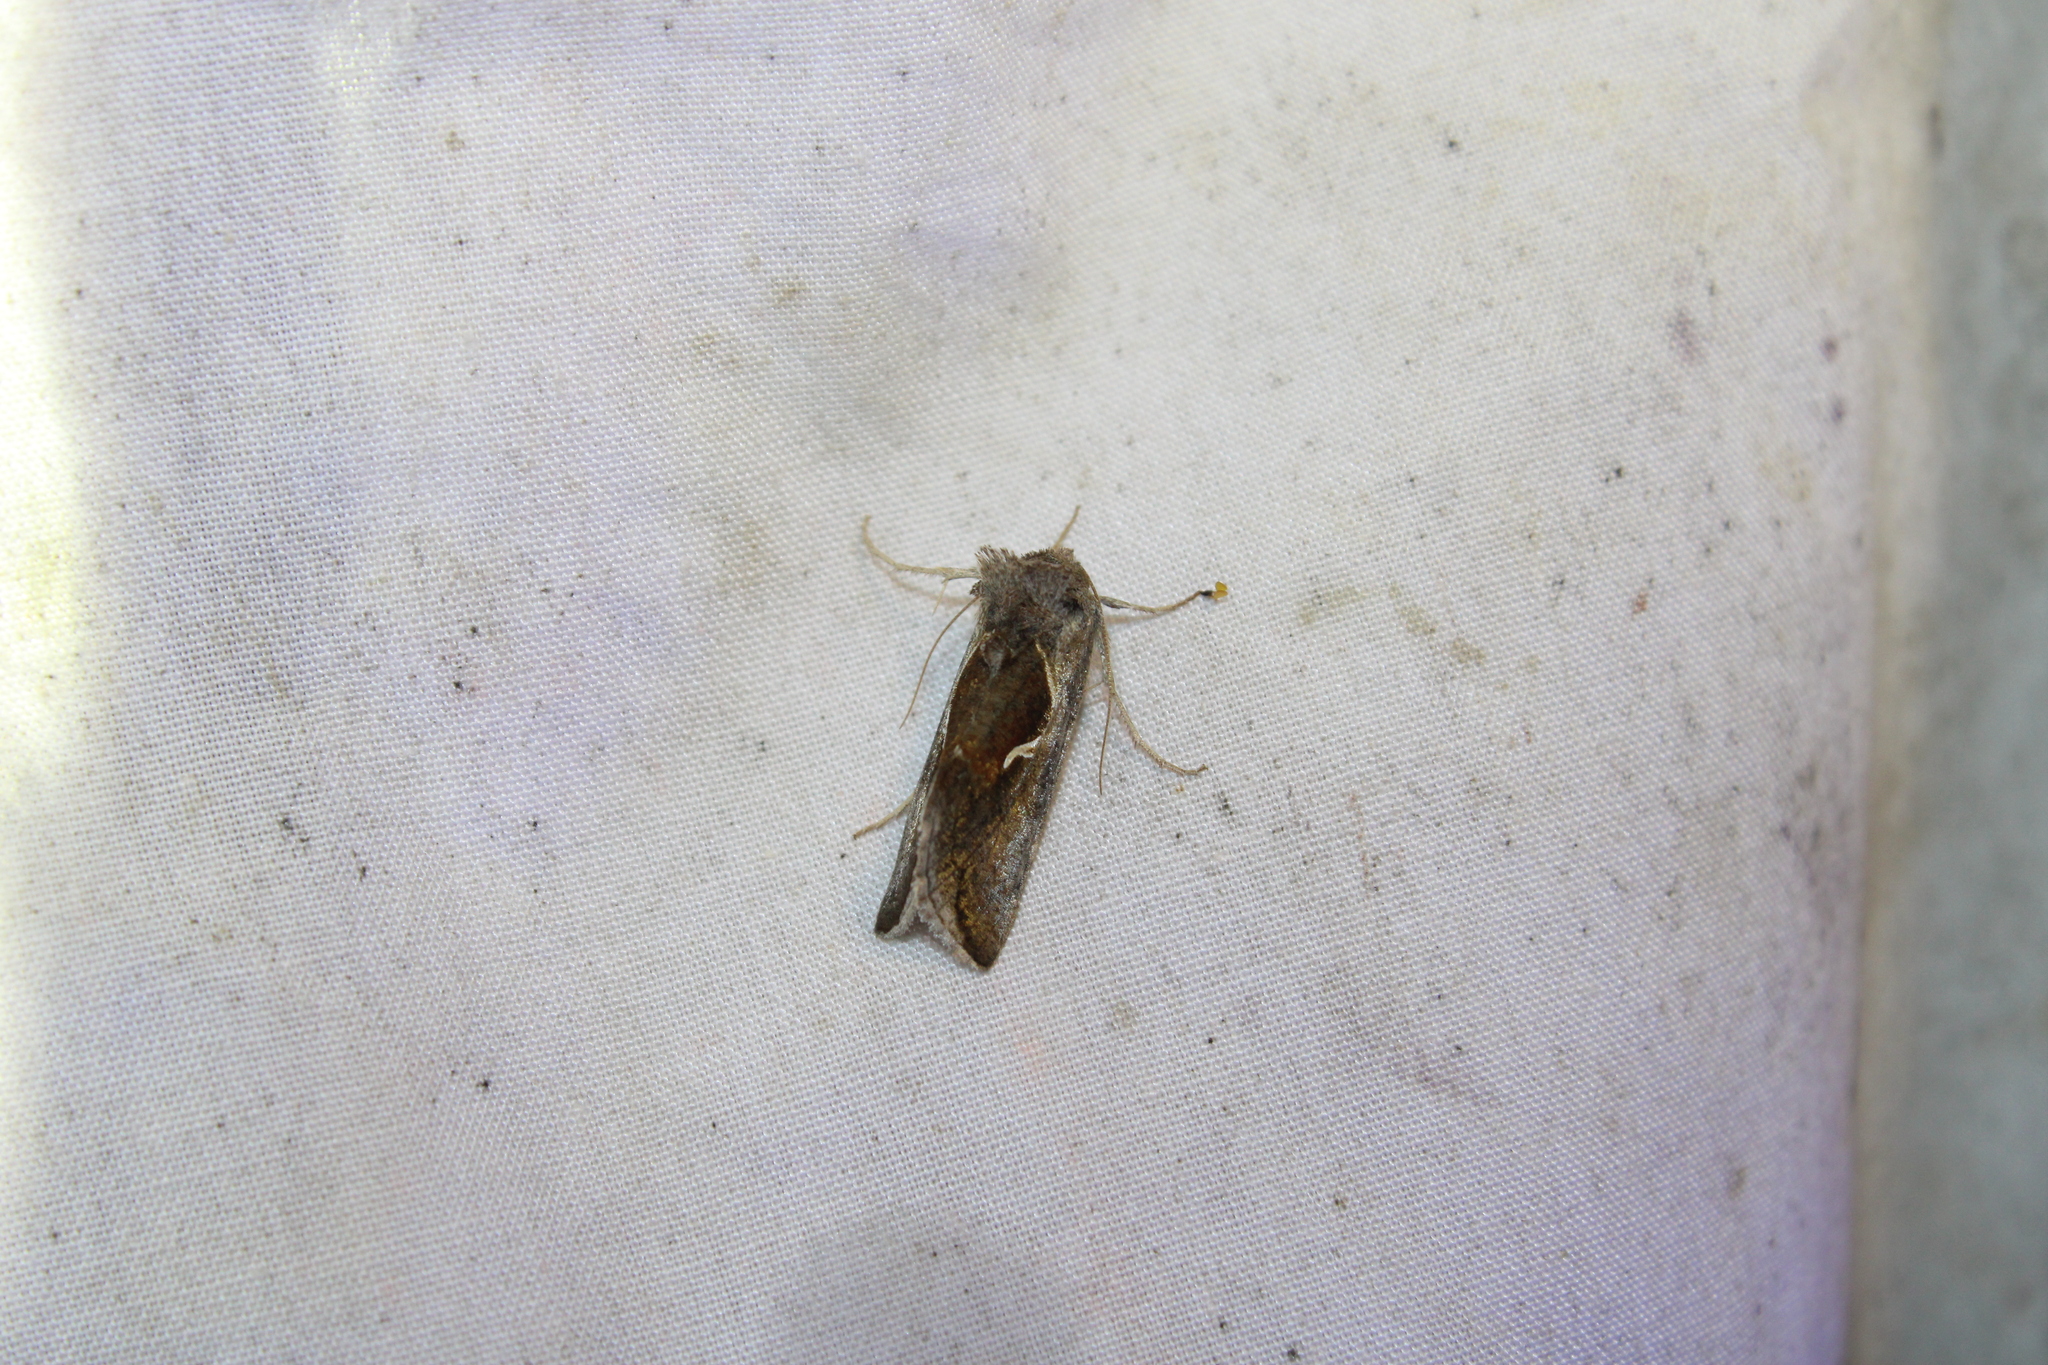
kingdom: Animalia
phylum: Arthropoda
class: Insecta
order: Lepidoptera
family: Noctuidae
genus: Anagrapha
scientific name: Anagrapha falcifera
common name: Celery looper
